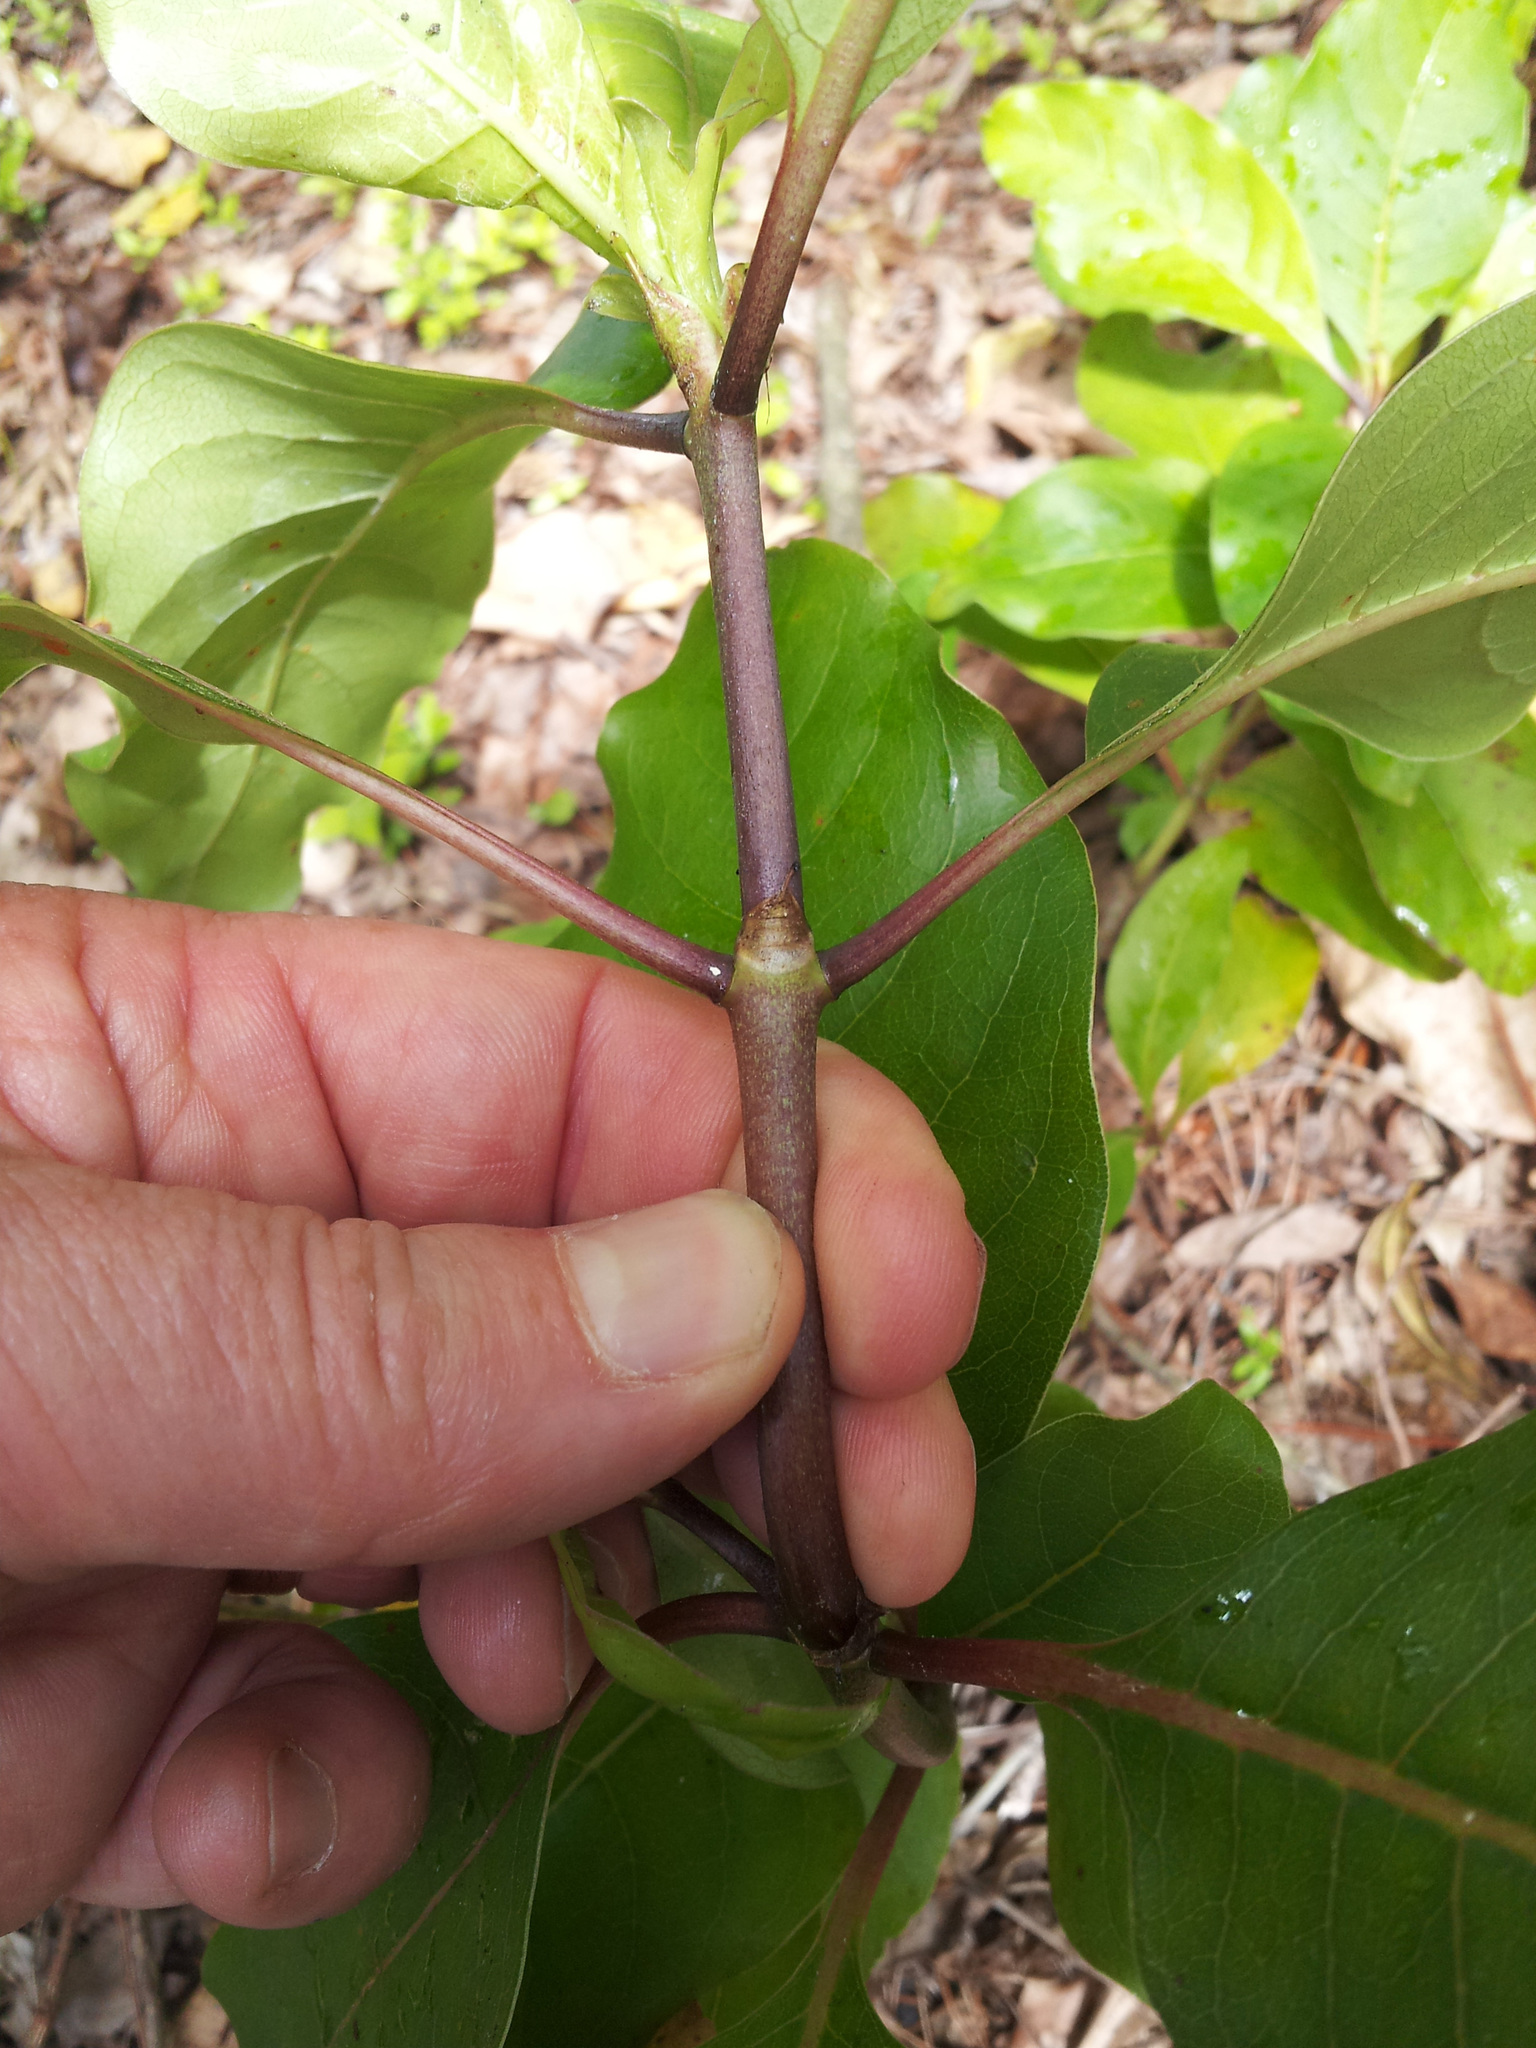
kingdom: Plantae
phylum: Tracheophyta
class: Magnoliopsida
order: Gentianales
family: Rubiaceae
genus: Coprosma
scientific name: Coprosma
